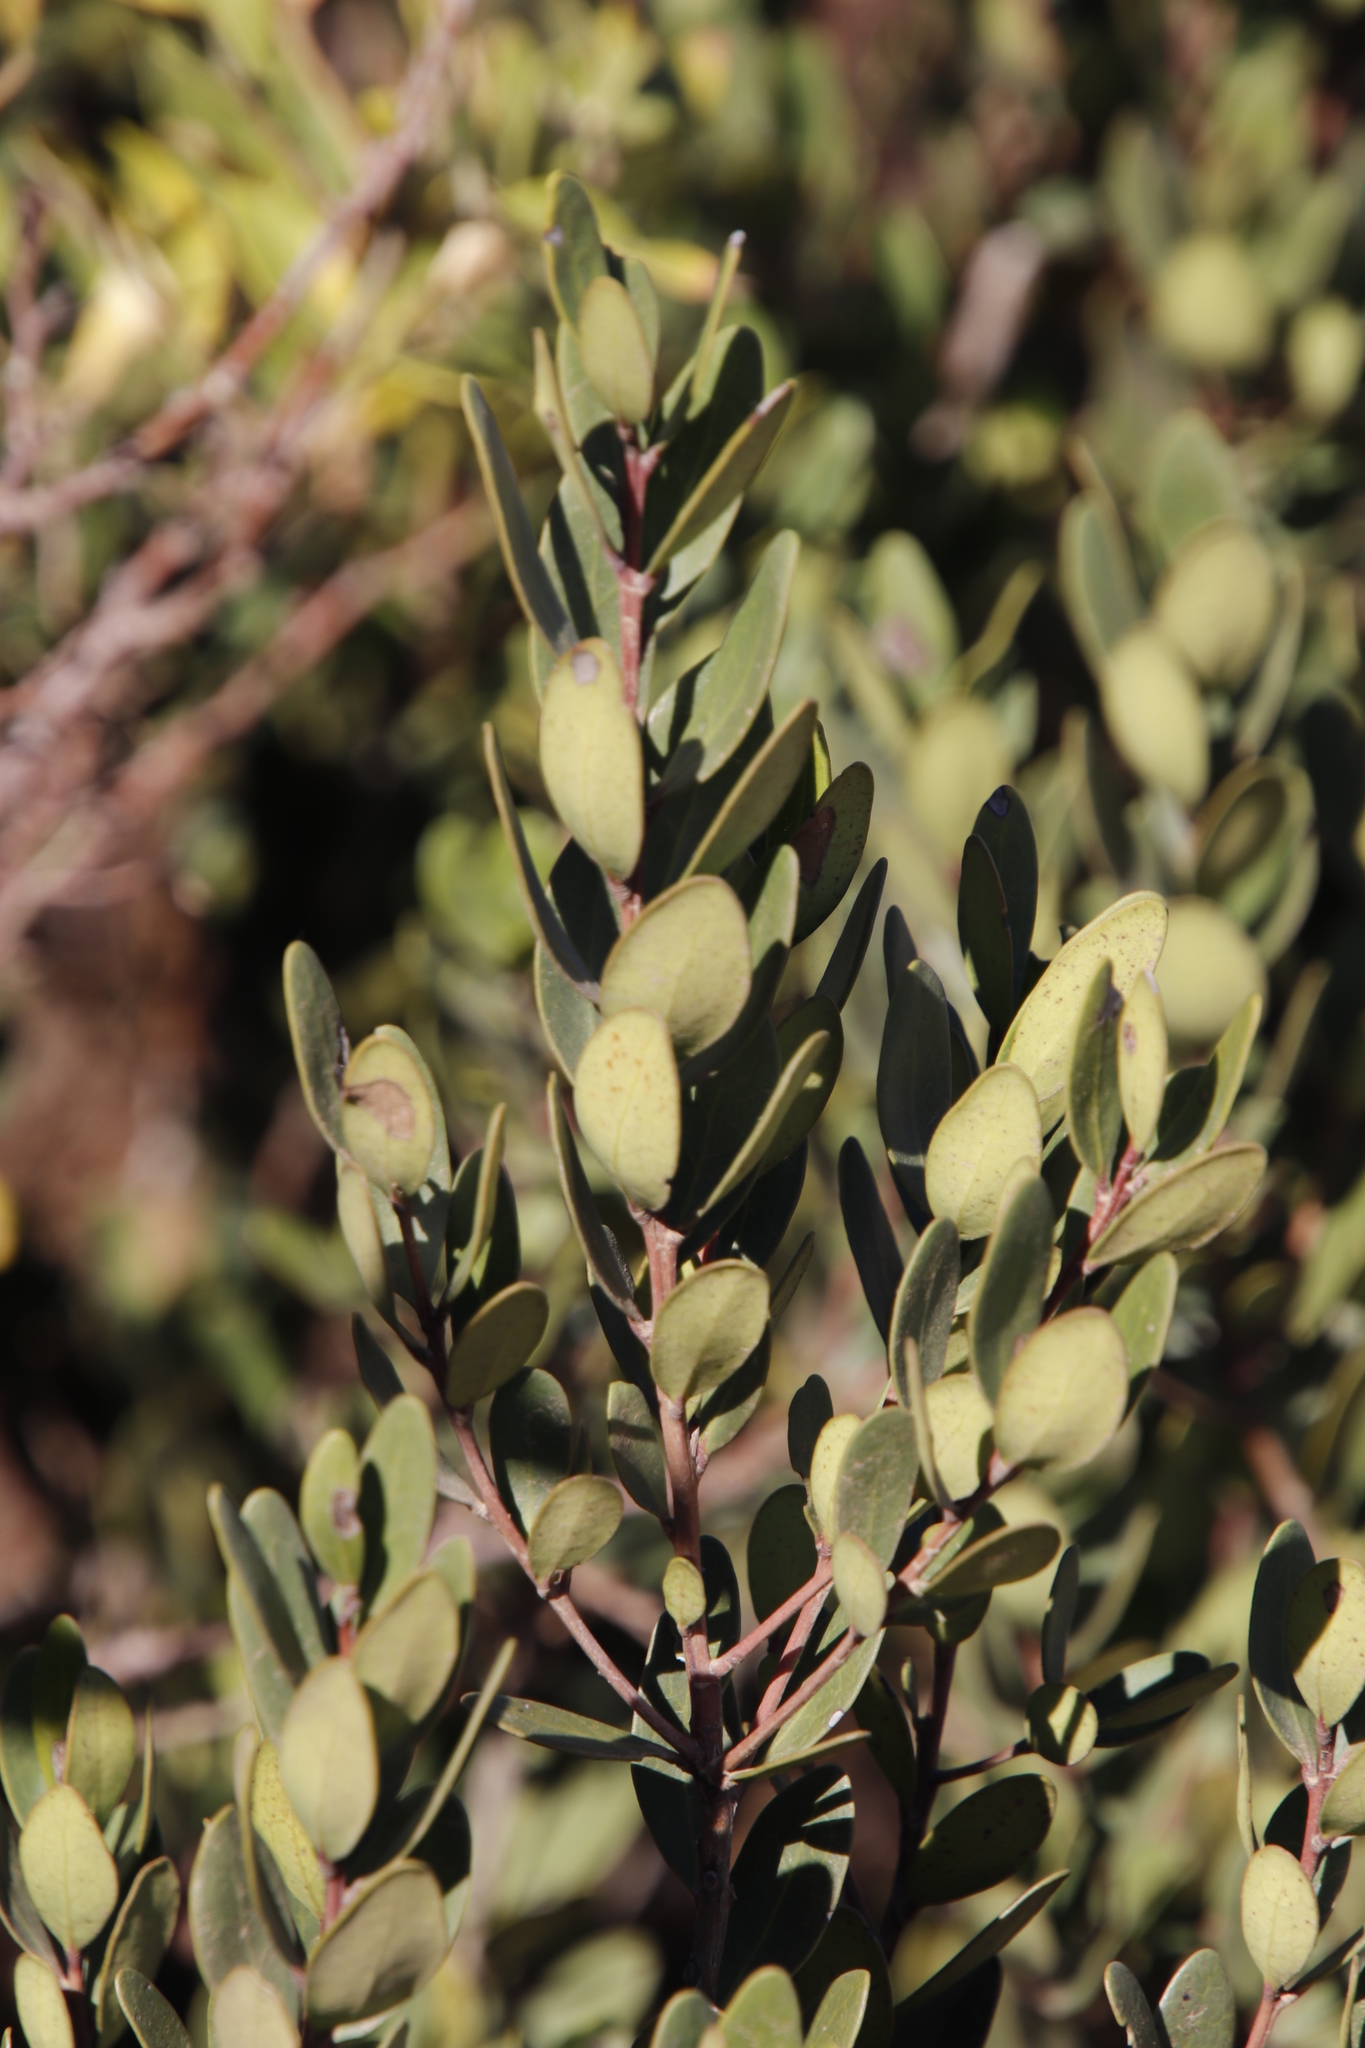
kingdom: Plantae
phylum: Tracheophyta
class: Magnoliopsida
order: Ericales
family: Ebenaceae
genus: Euclea
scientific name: Euclea racemosa
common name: Dune guarri
